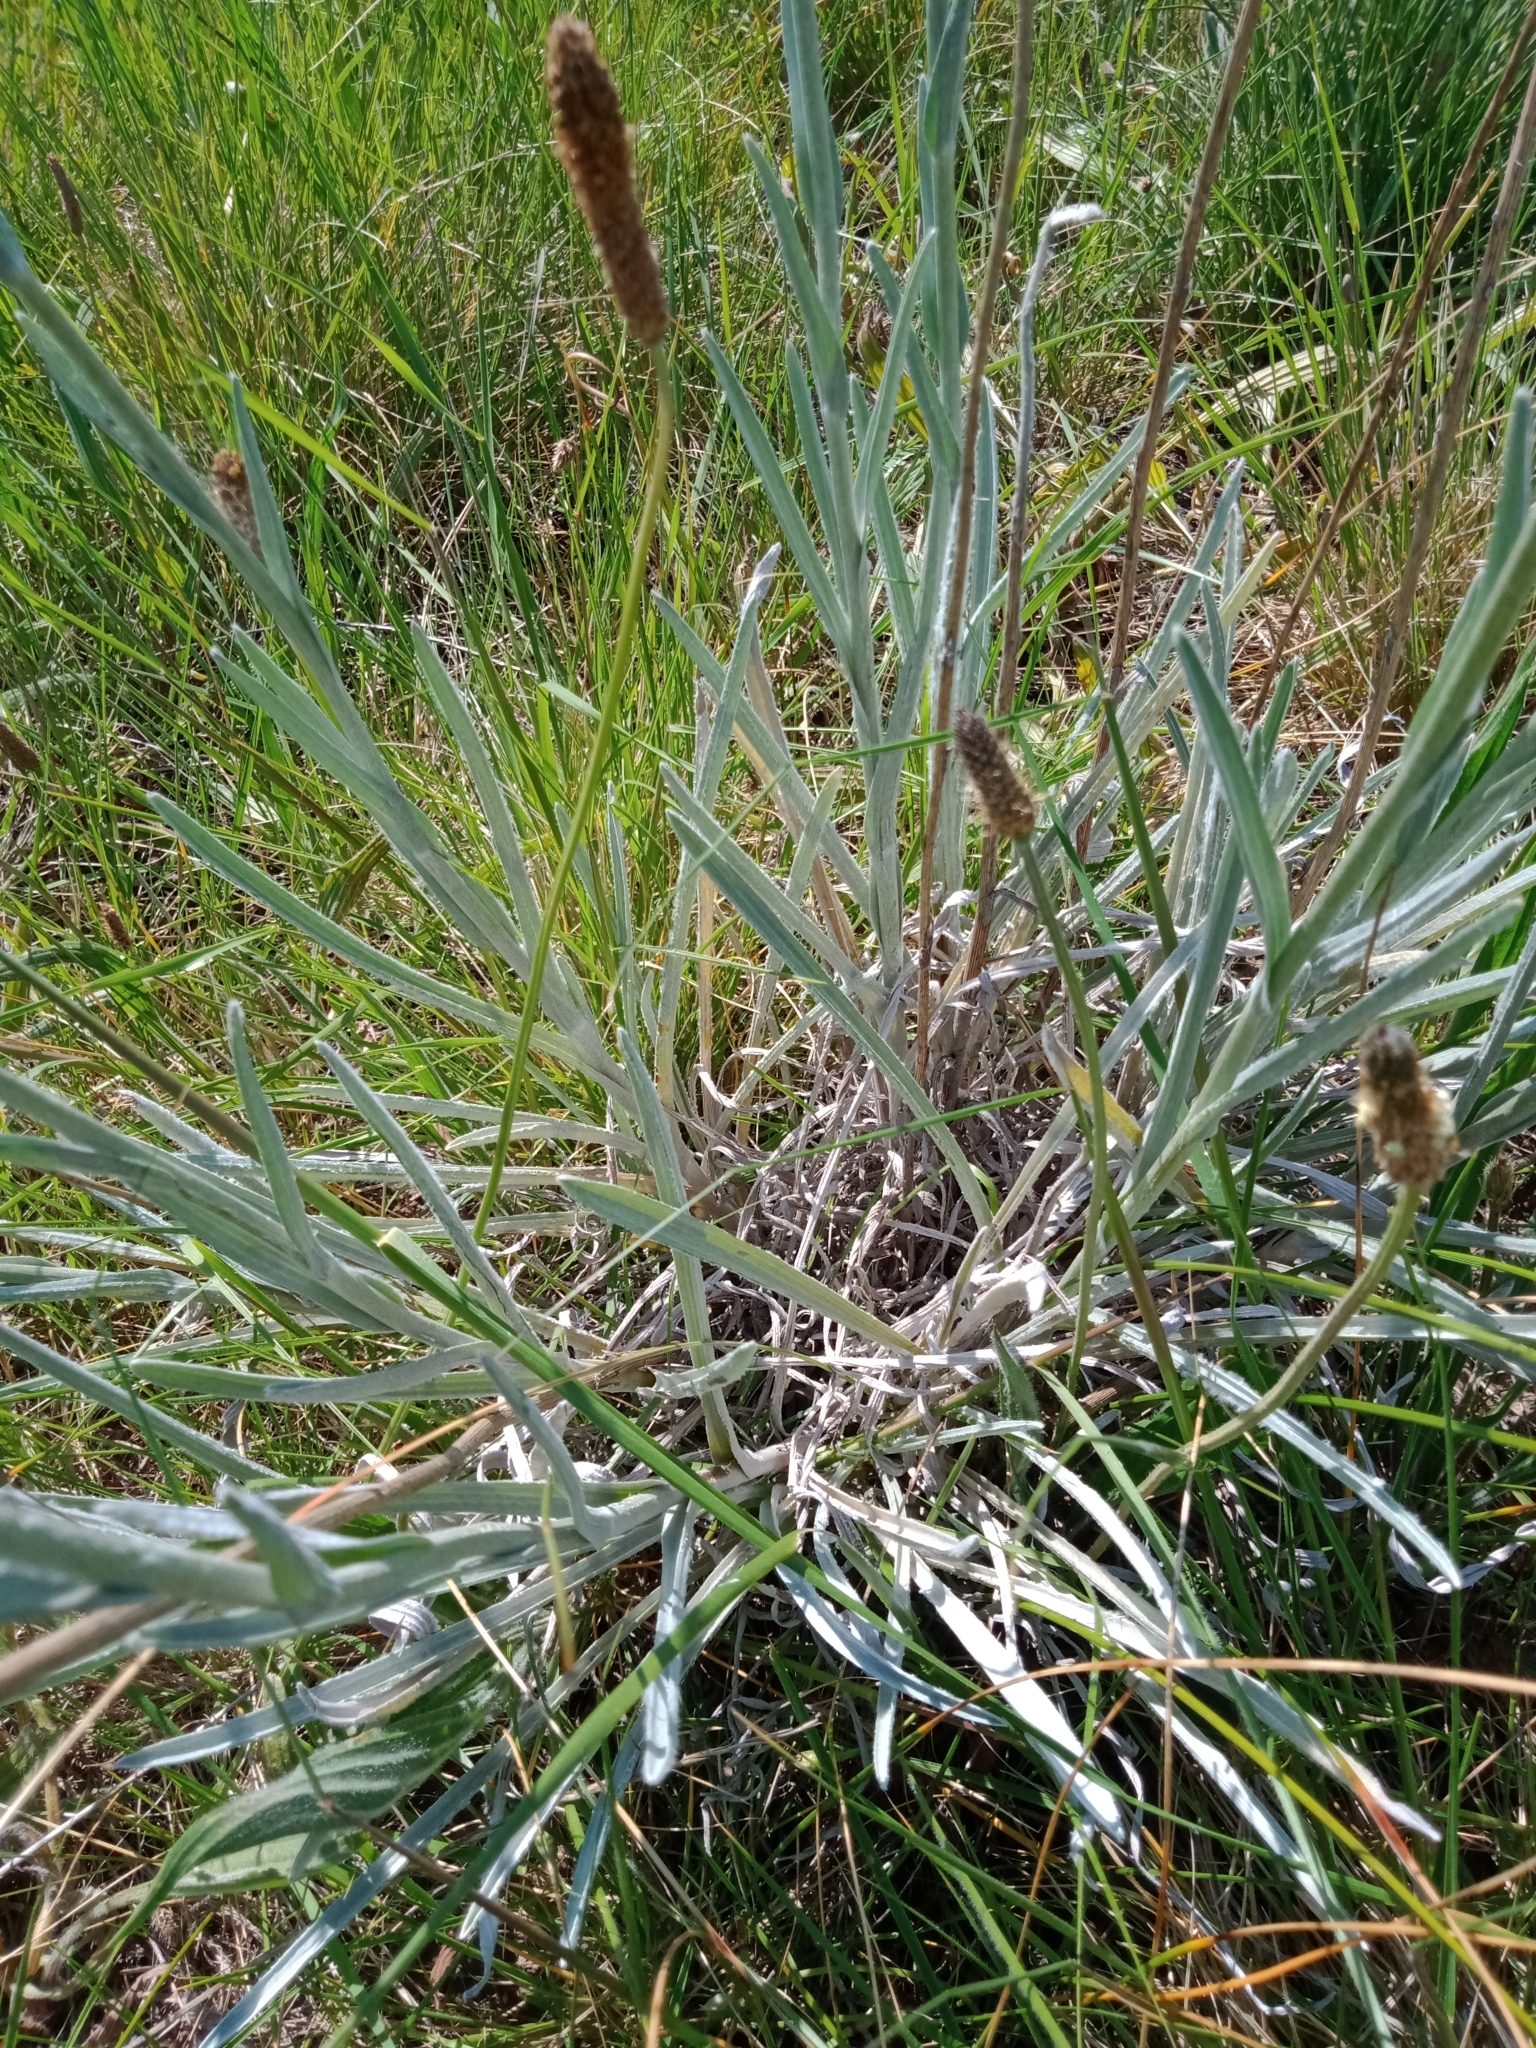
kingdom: Plantae
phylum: Tracheophyta
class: Magnoliopsida
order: Asterales
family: Asteraceae
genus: Pycnosorus
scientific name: Pycnosorus globosus
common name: Drumsticks
